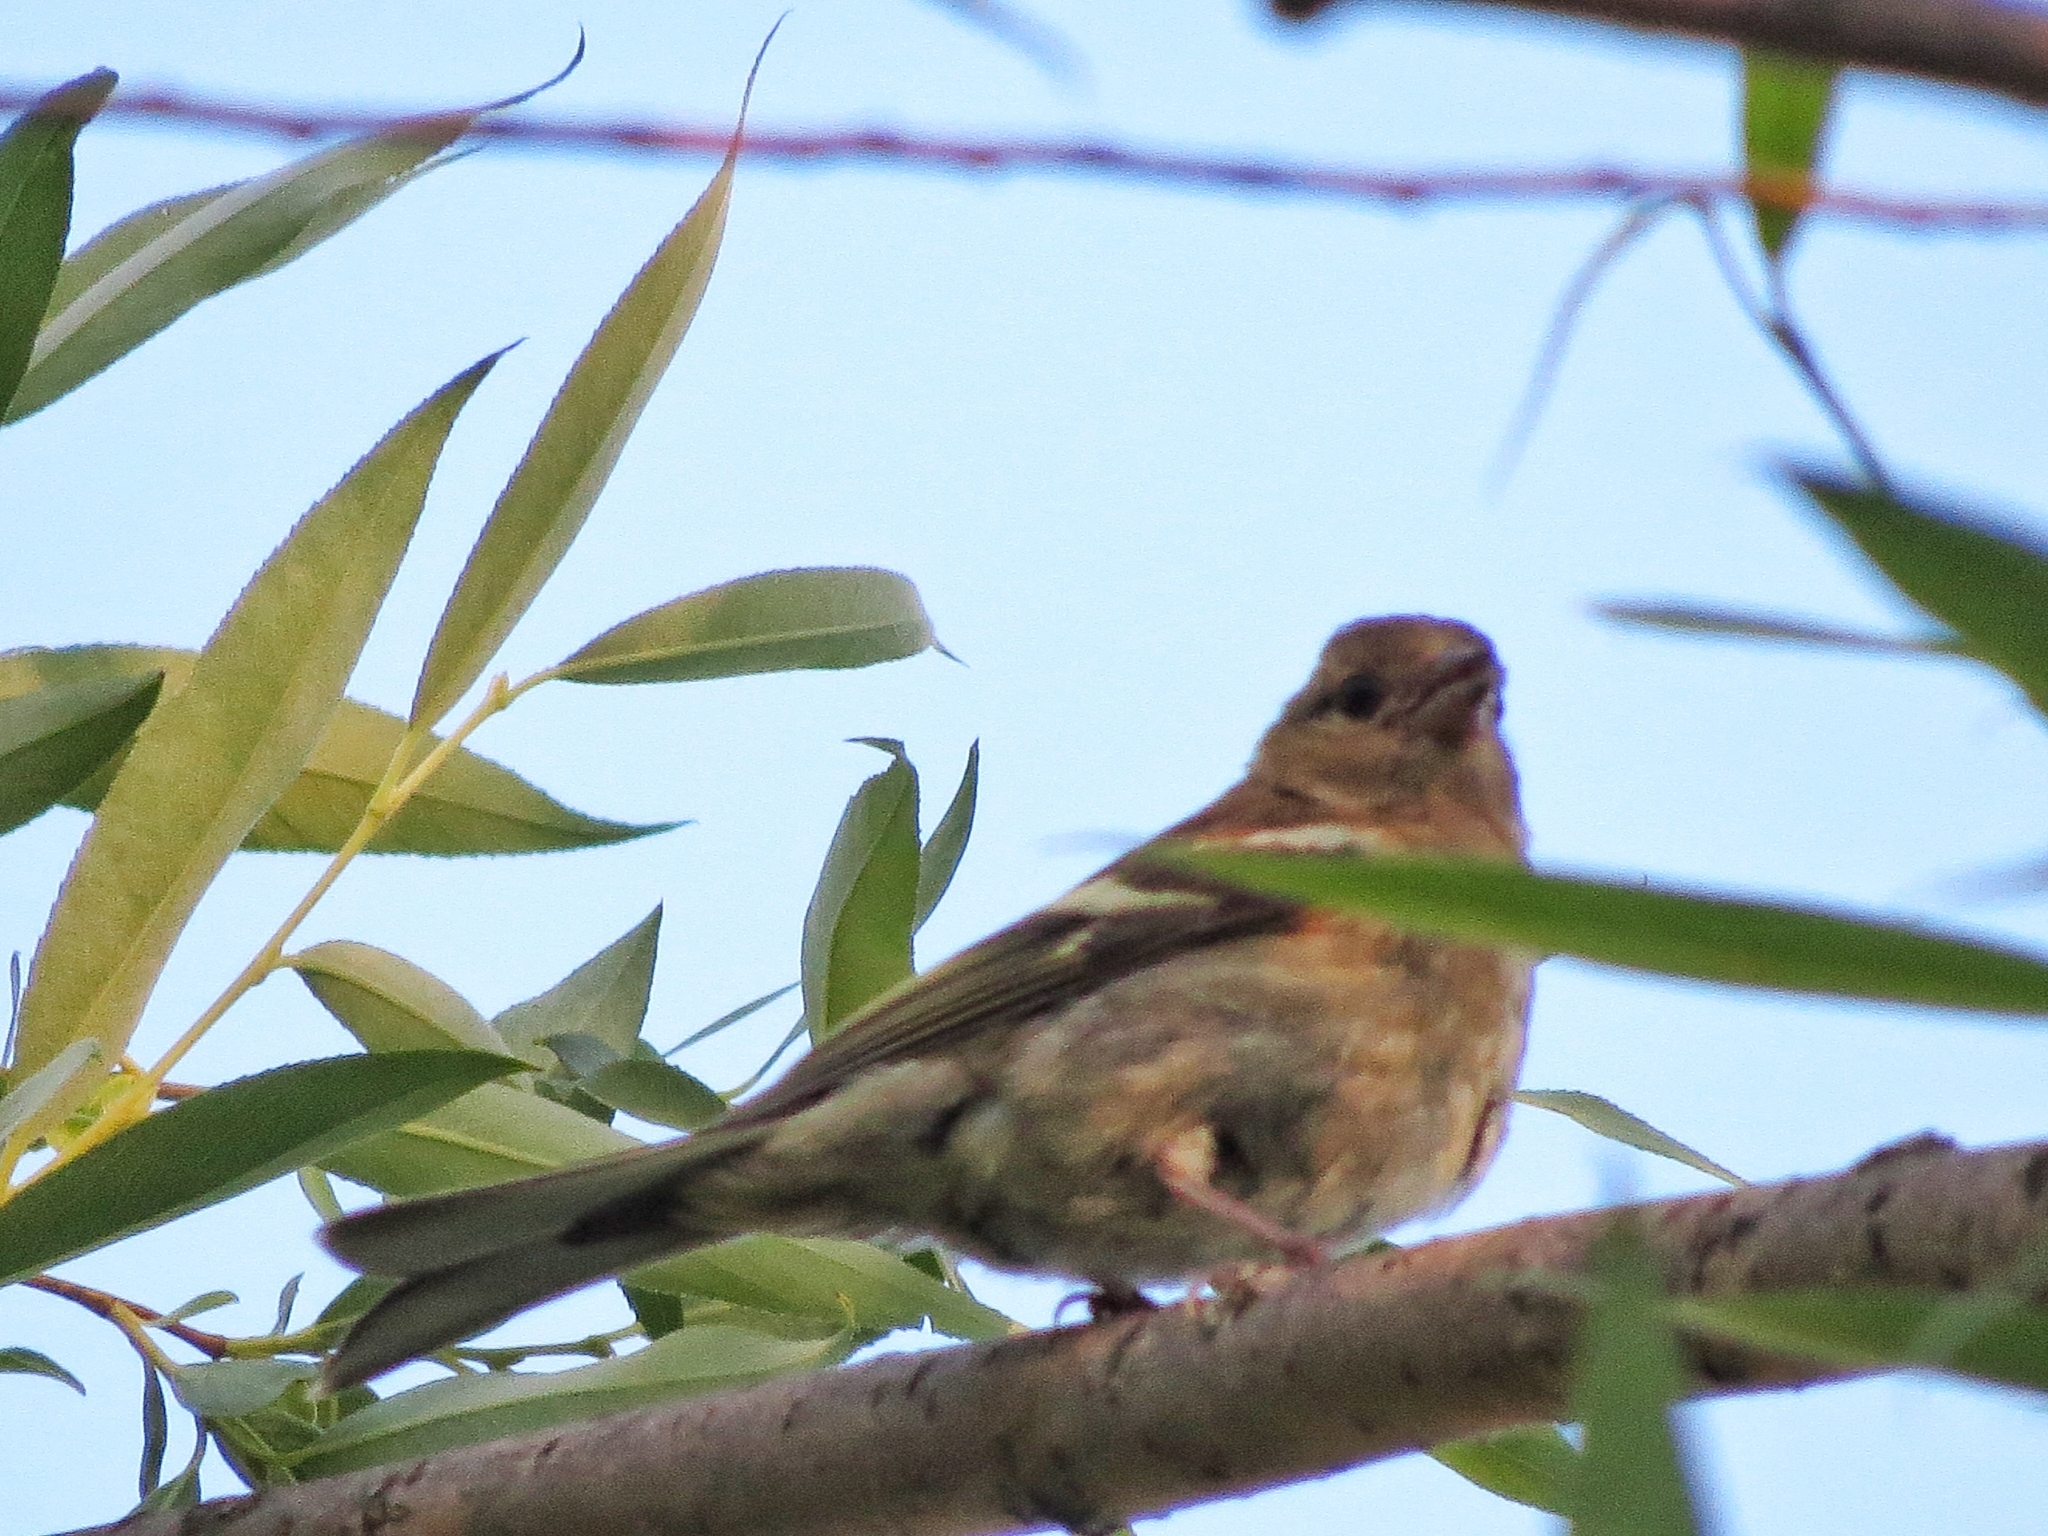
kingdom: Animalia
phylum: Chordata
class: Aves
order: Passeriformes
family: Fringillidae
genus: Fringilla
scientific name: Fringilla coelebs
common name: Common chaffinch
